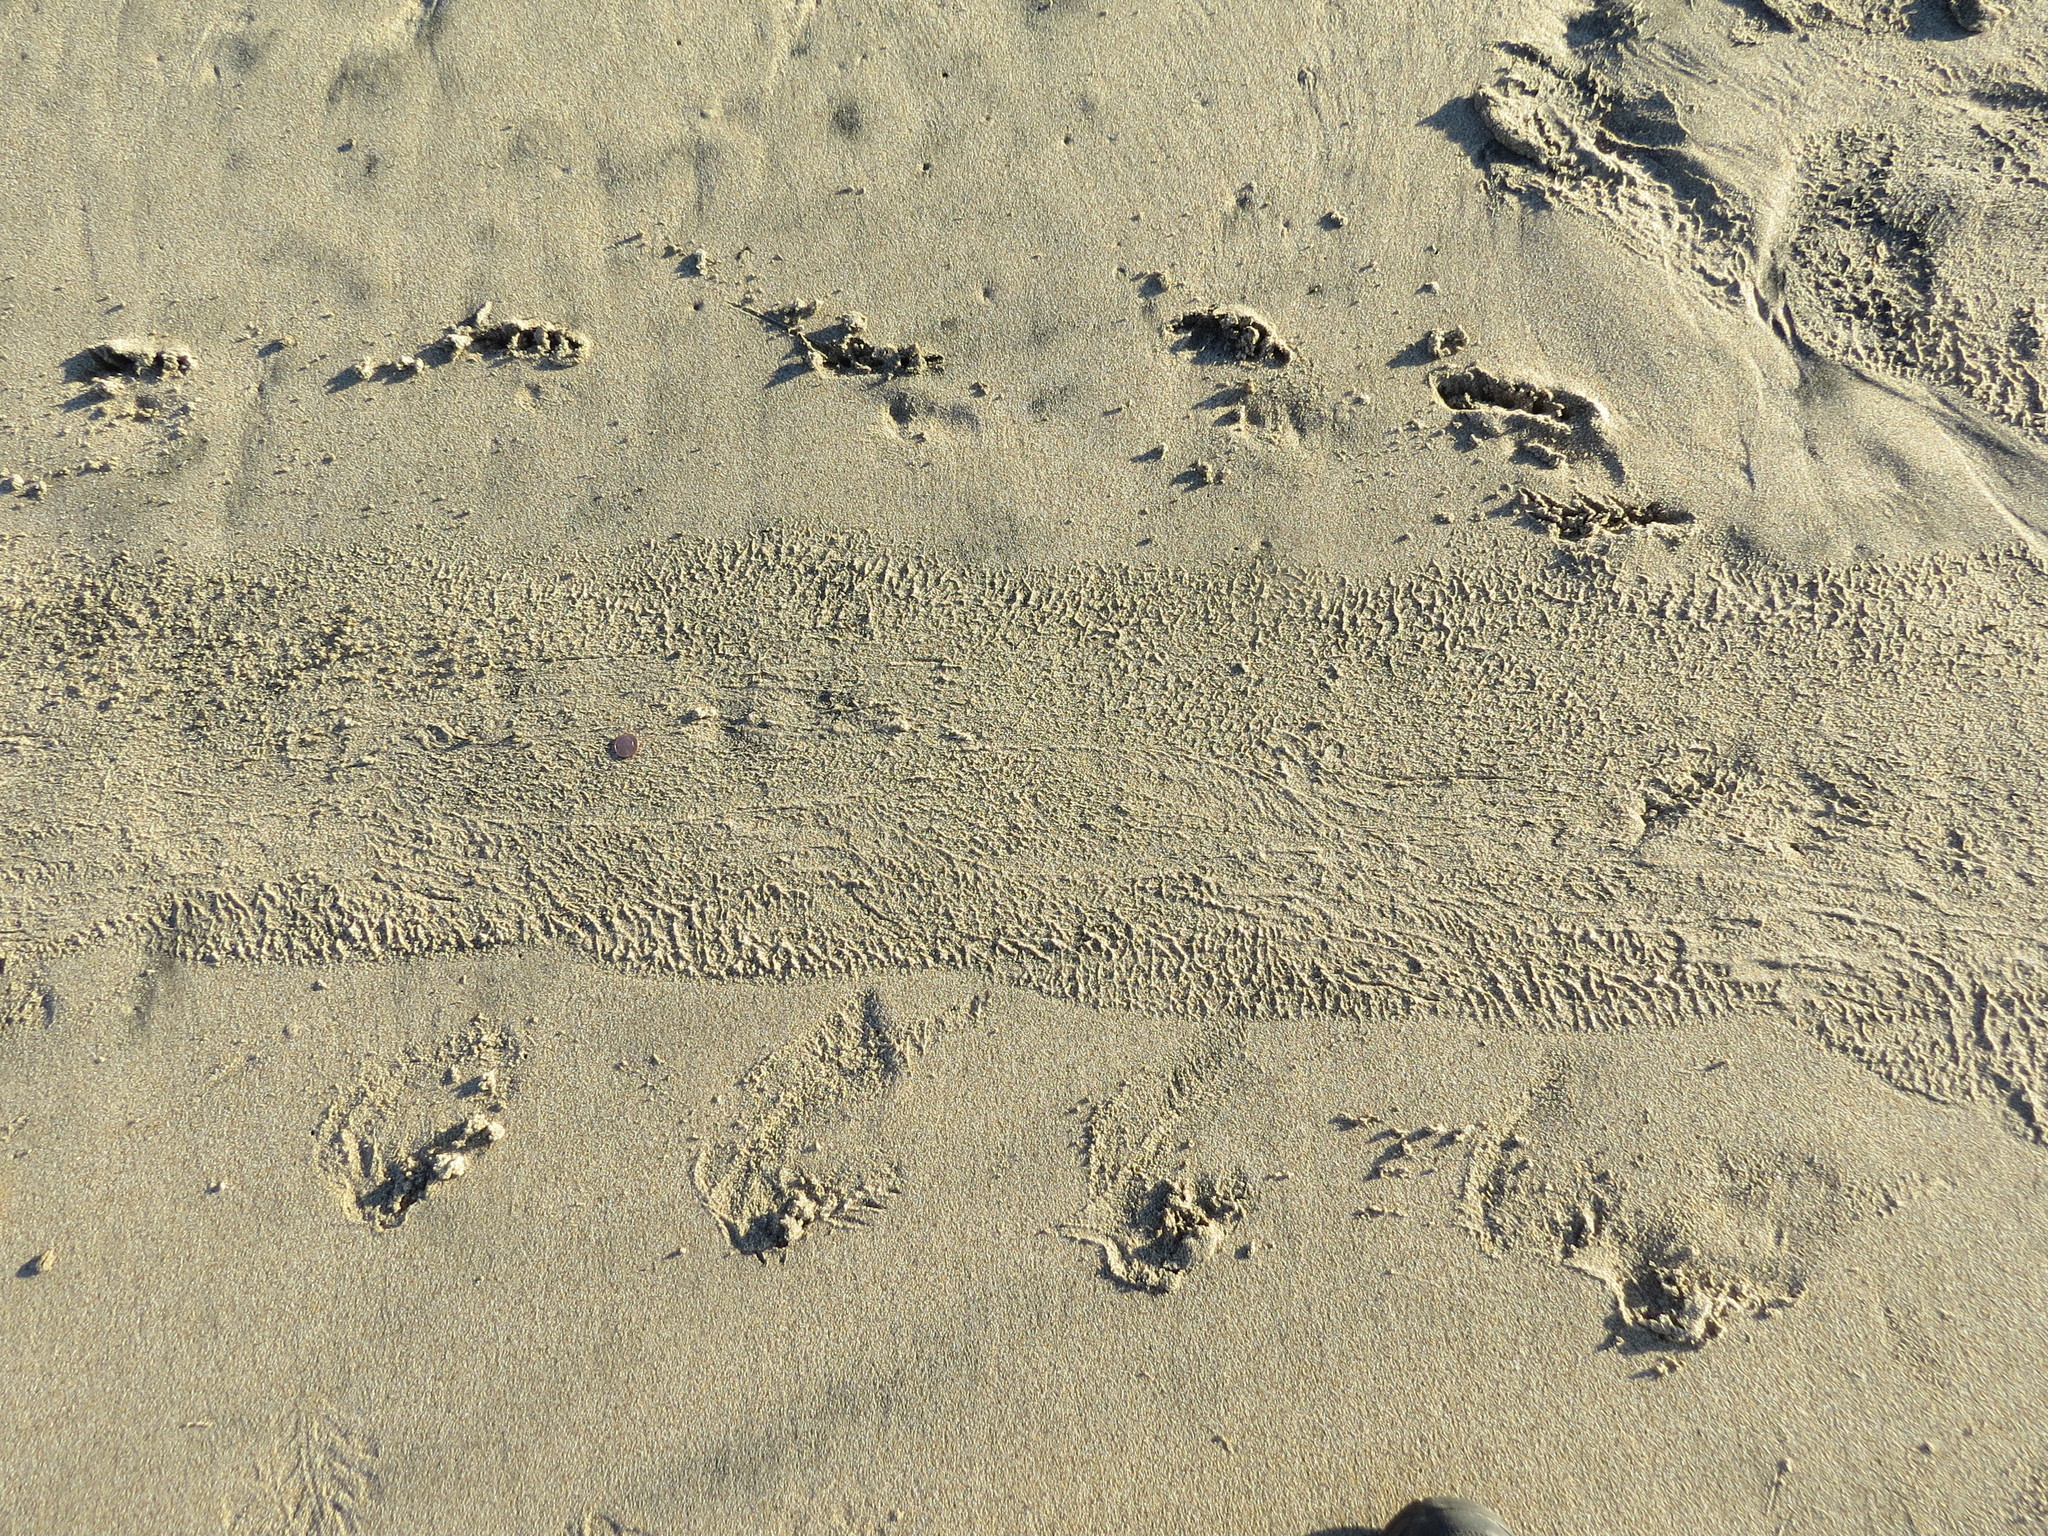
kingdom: Animalia
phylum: Chordata
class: Mammalia
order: Carnivora
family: Phocidae
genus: Phoca
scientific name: Phoca vitulina
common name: Harbor seal
